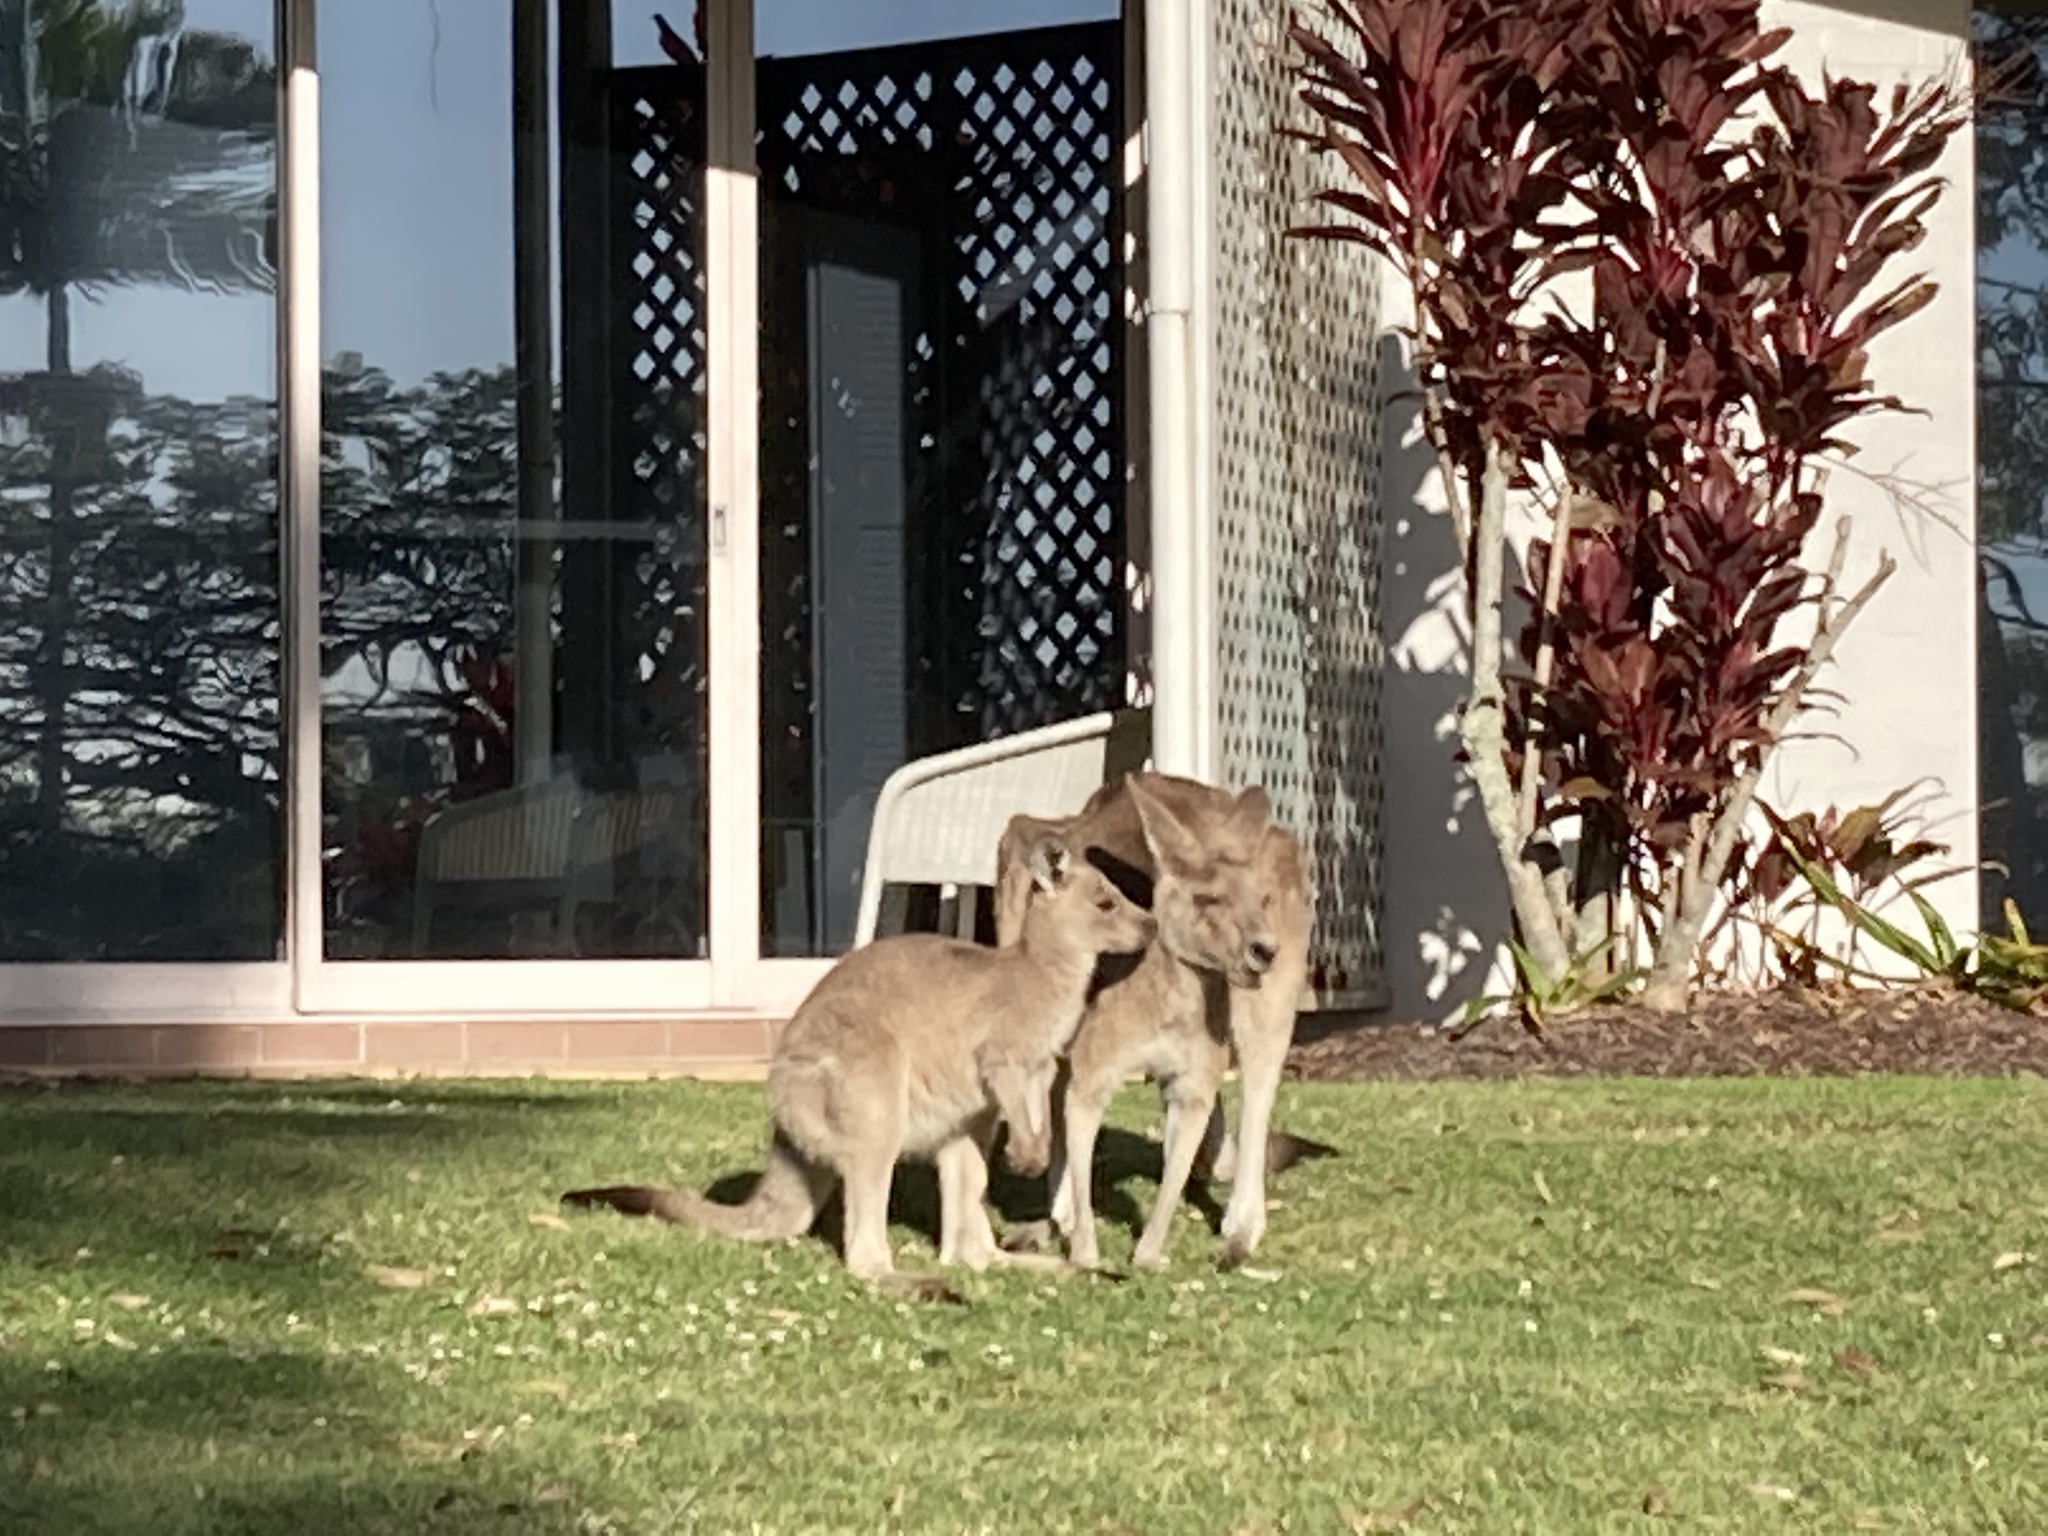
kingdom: Animalia
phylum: Chordata
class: Mammalia
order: Diprotodontia
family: Macropodidae
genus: Macropus
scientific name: Macropus giganteus
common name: Eastern grey kangaroo
